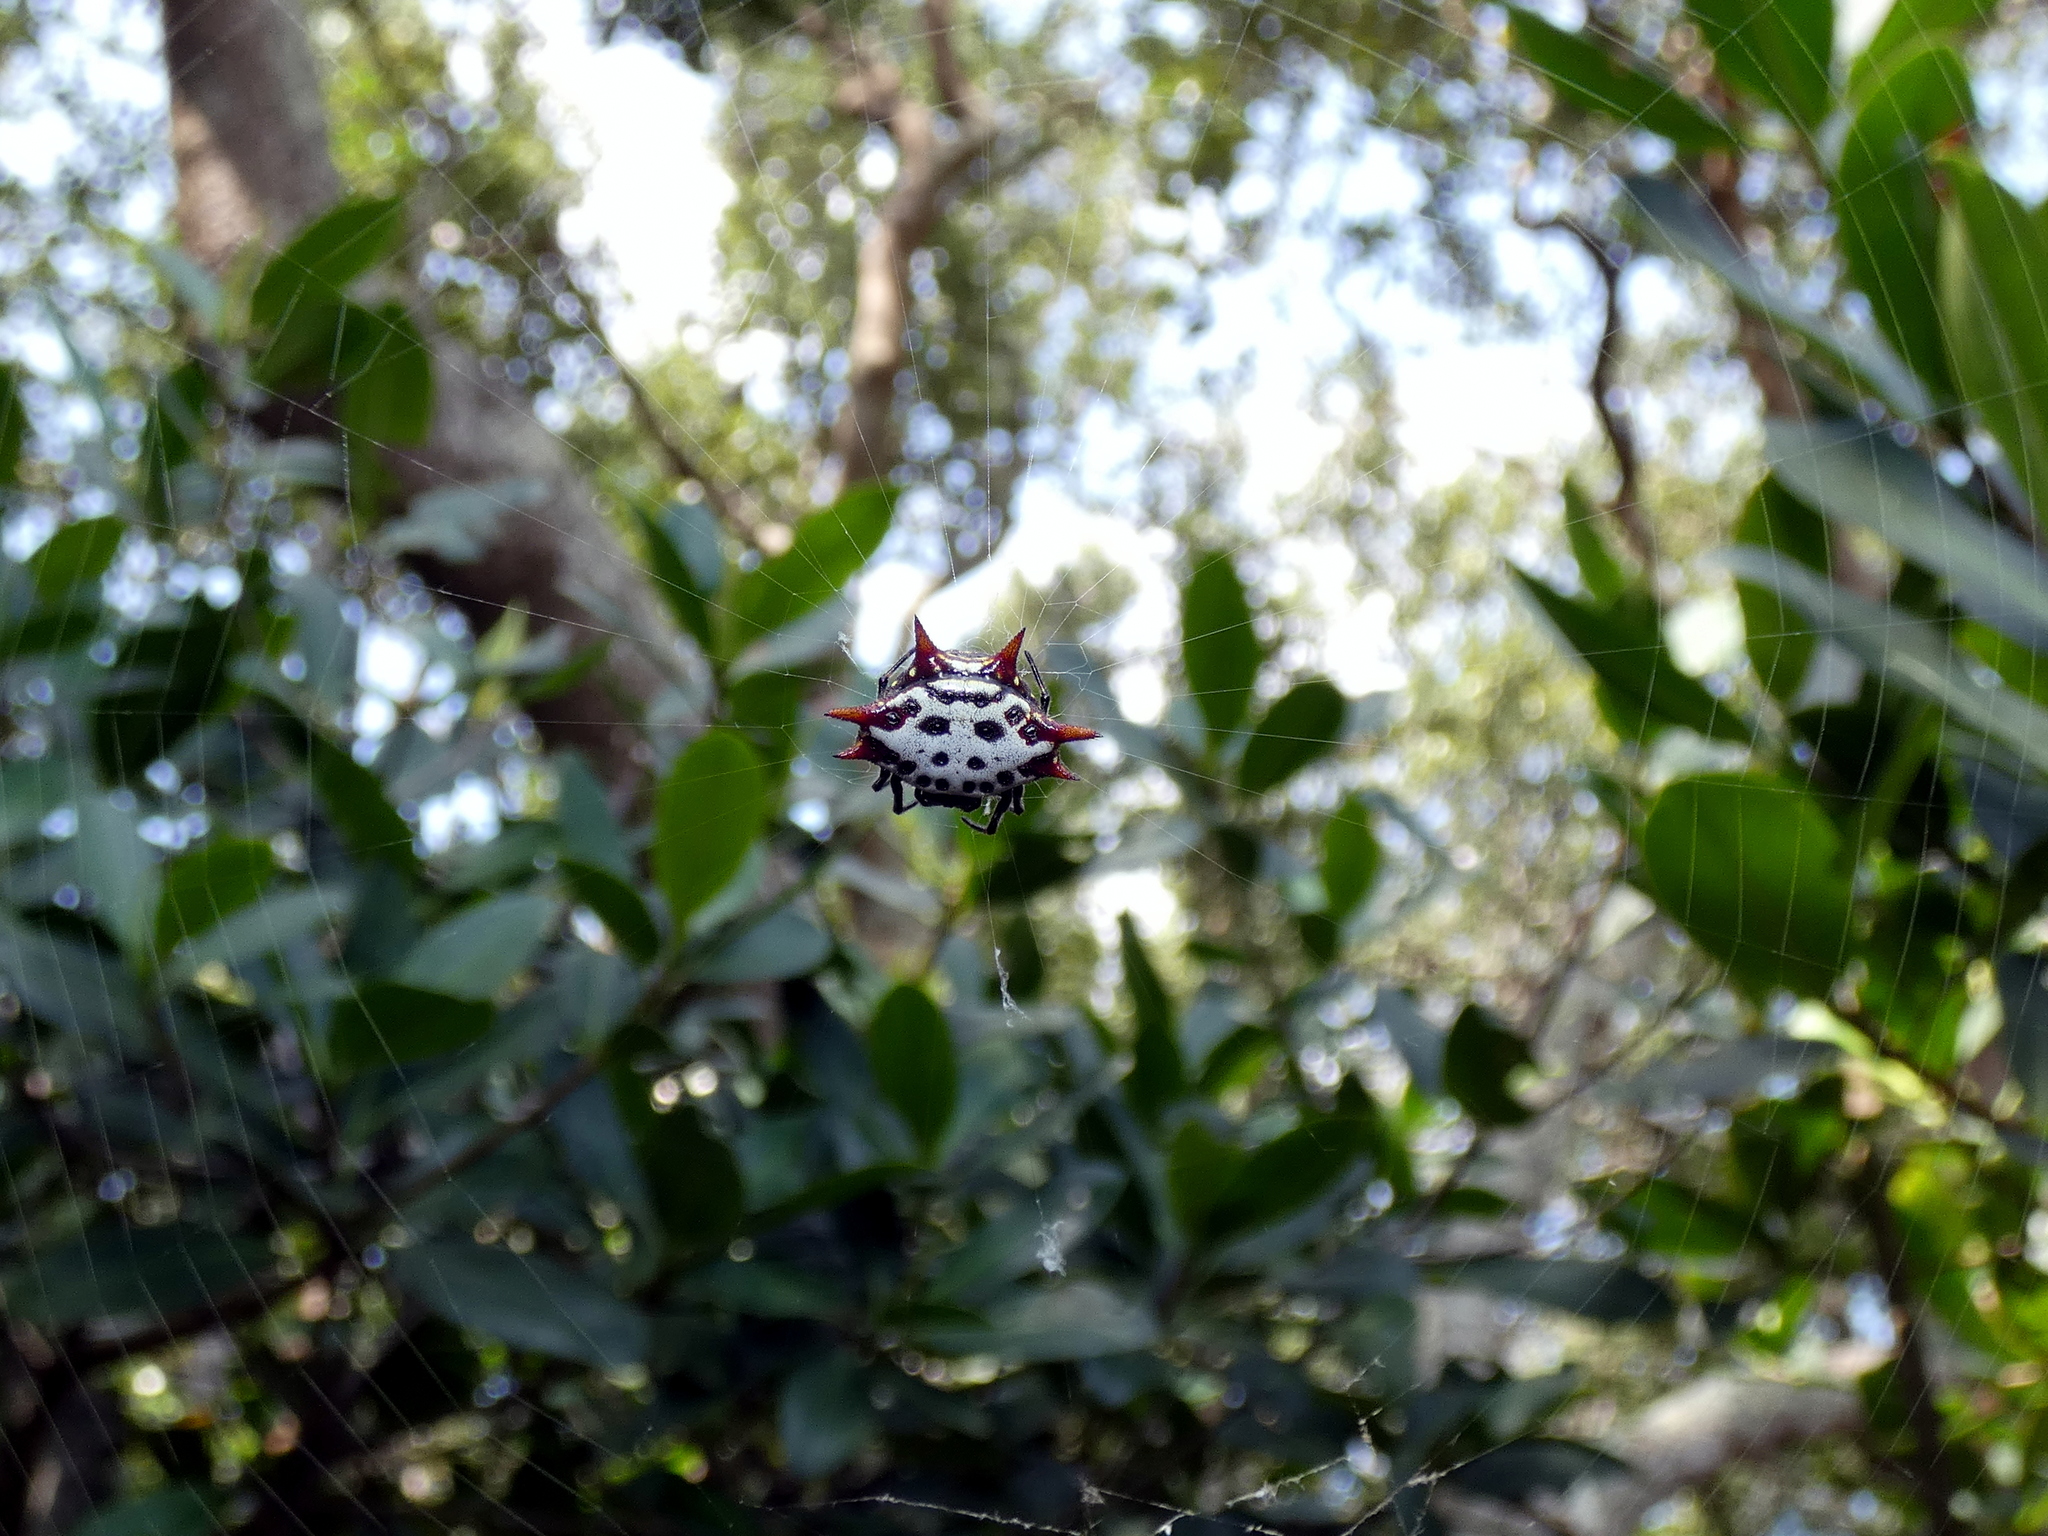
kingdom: Animalia
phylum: Arthropoda
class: Arachnida
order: Araneae
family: Araneidae
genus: Gasteracantha
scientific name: Gasteracantha cancriformis
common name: Orb weavers
